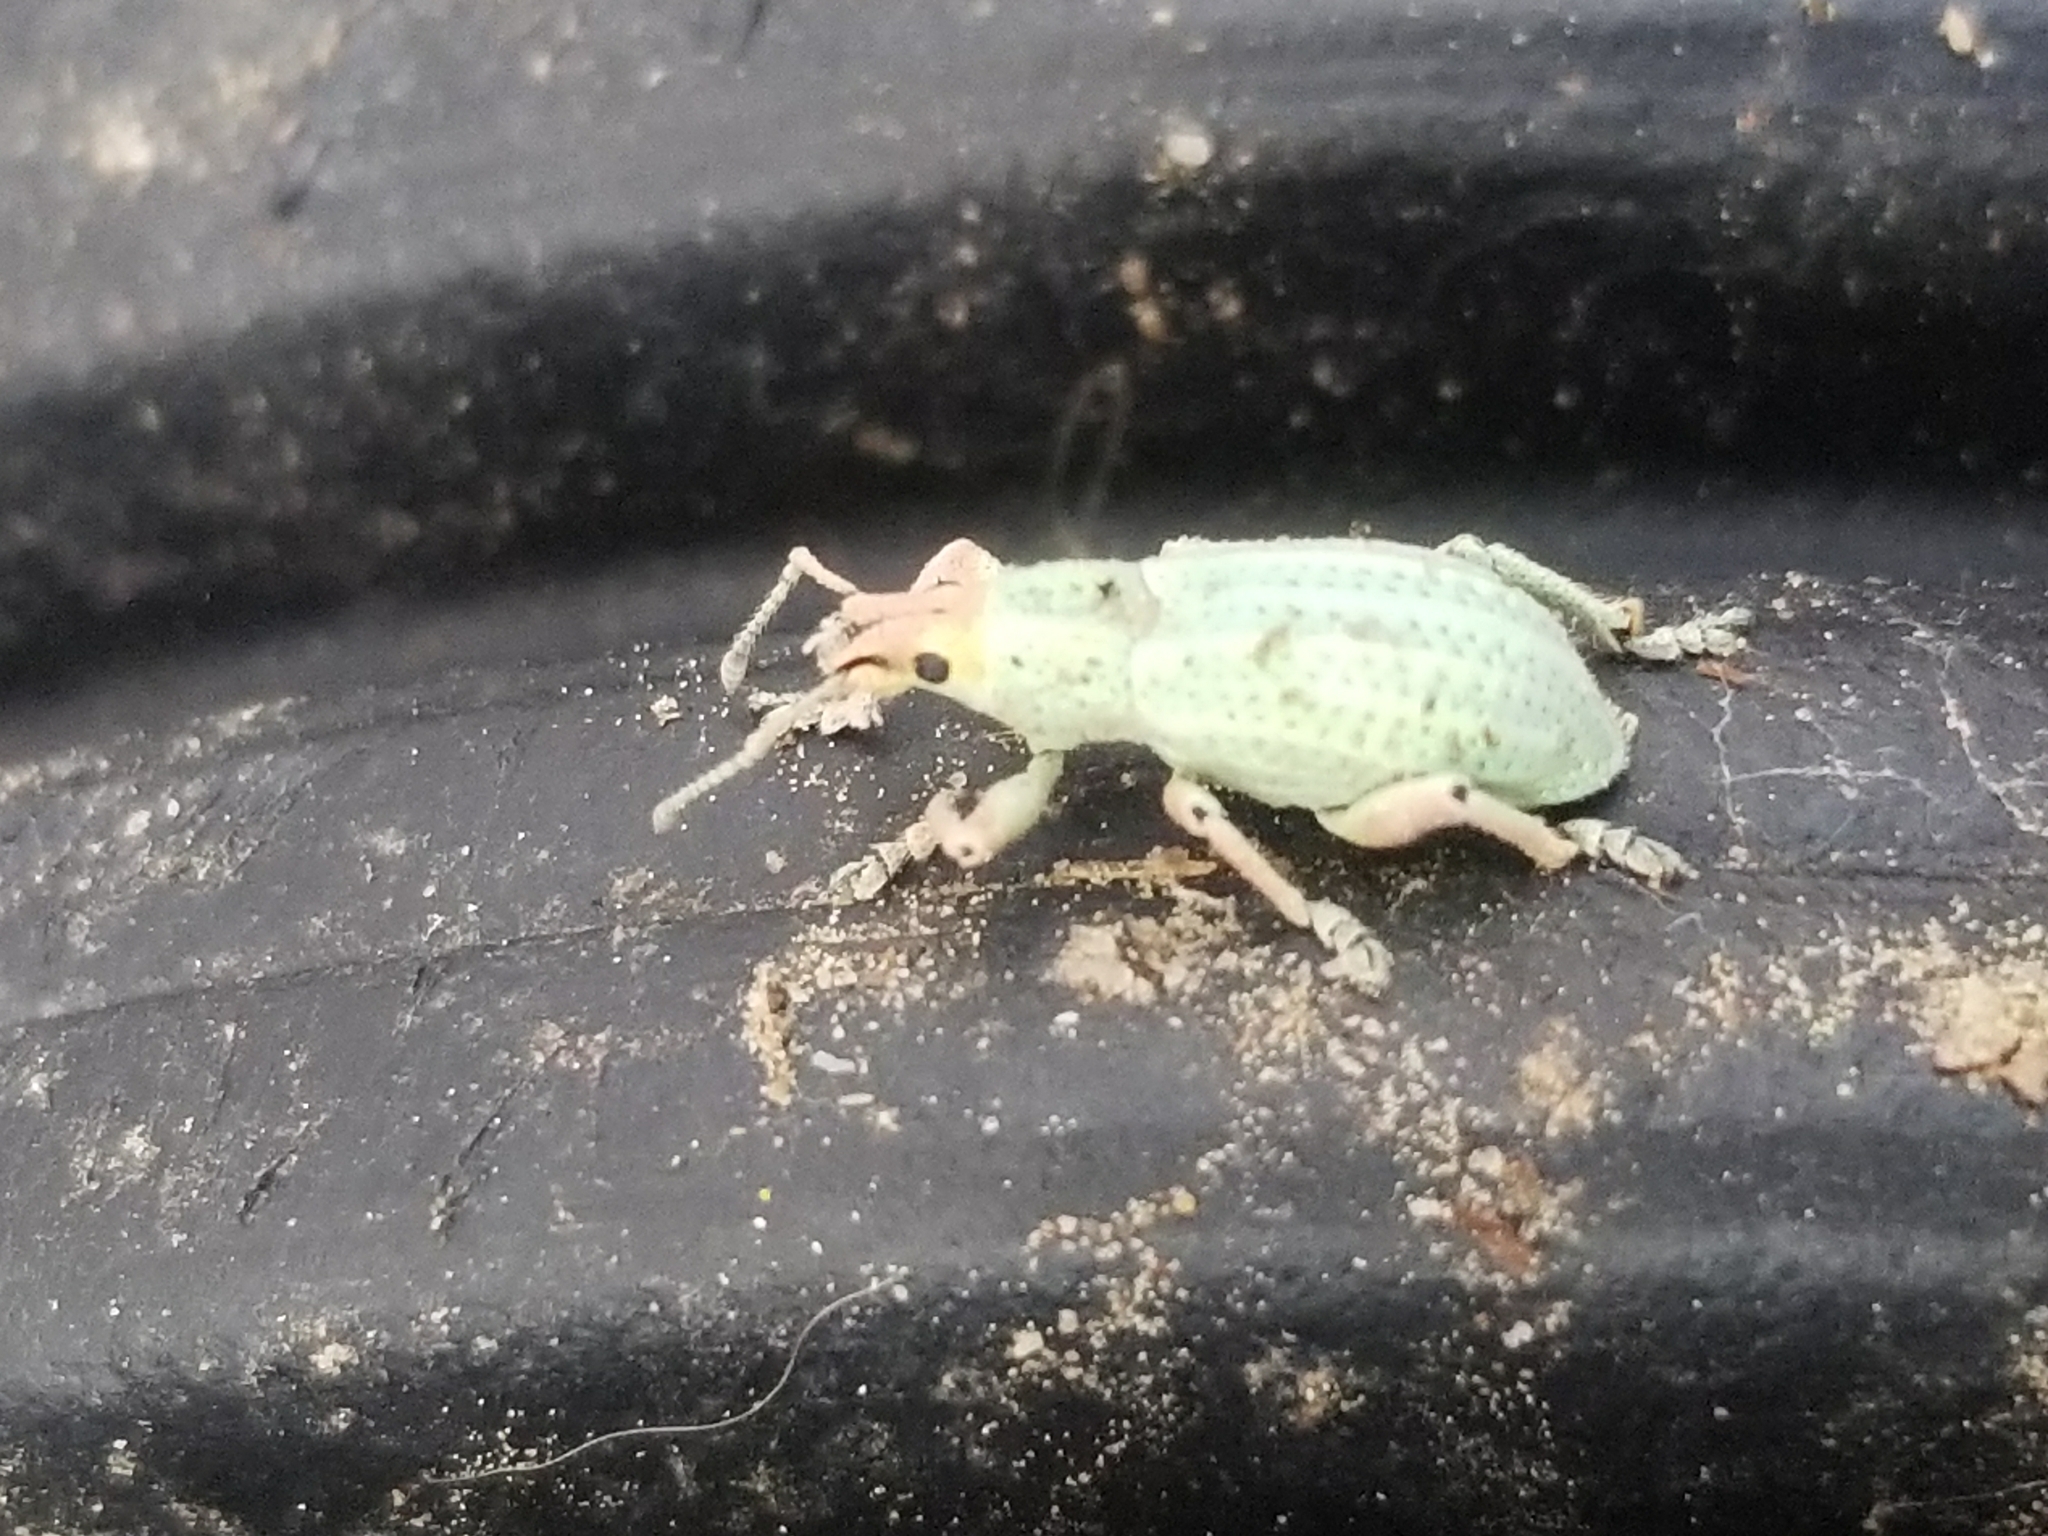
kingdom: Animalia
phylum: Arthropoda
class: Insecta
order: Coleoptera
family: Curculionidae
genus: Compsus
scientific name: Compsus auricephalus
